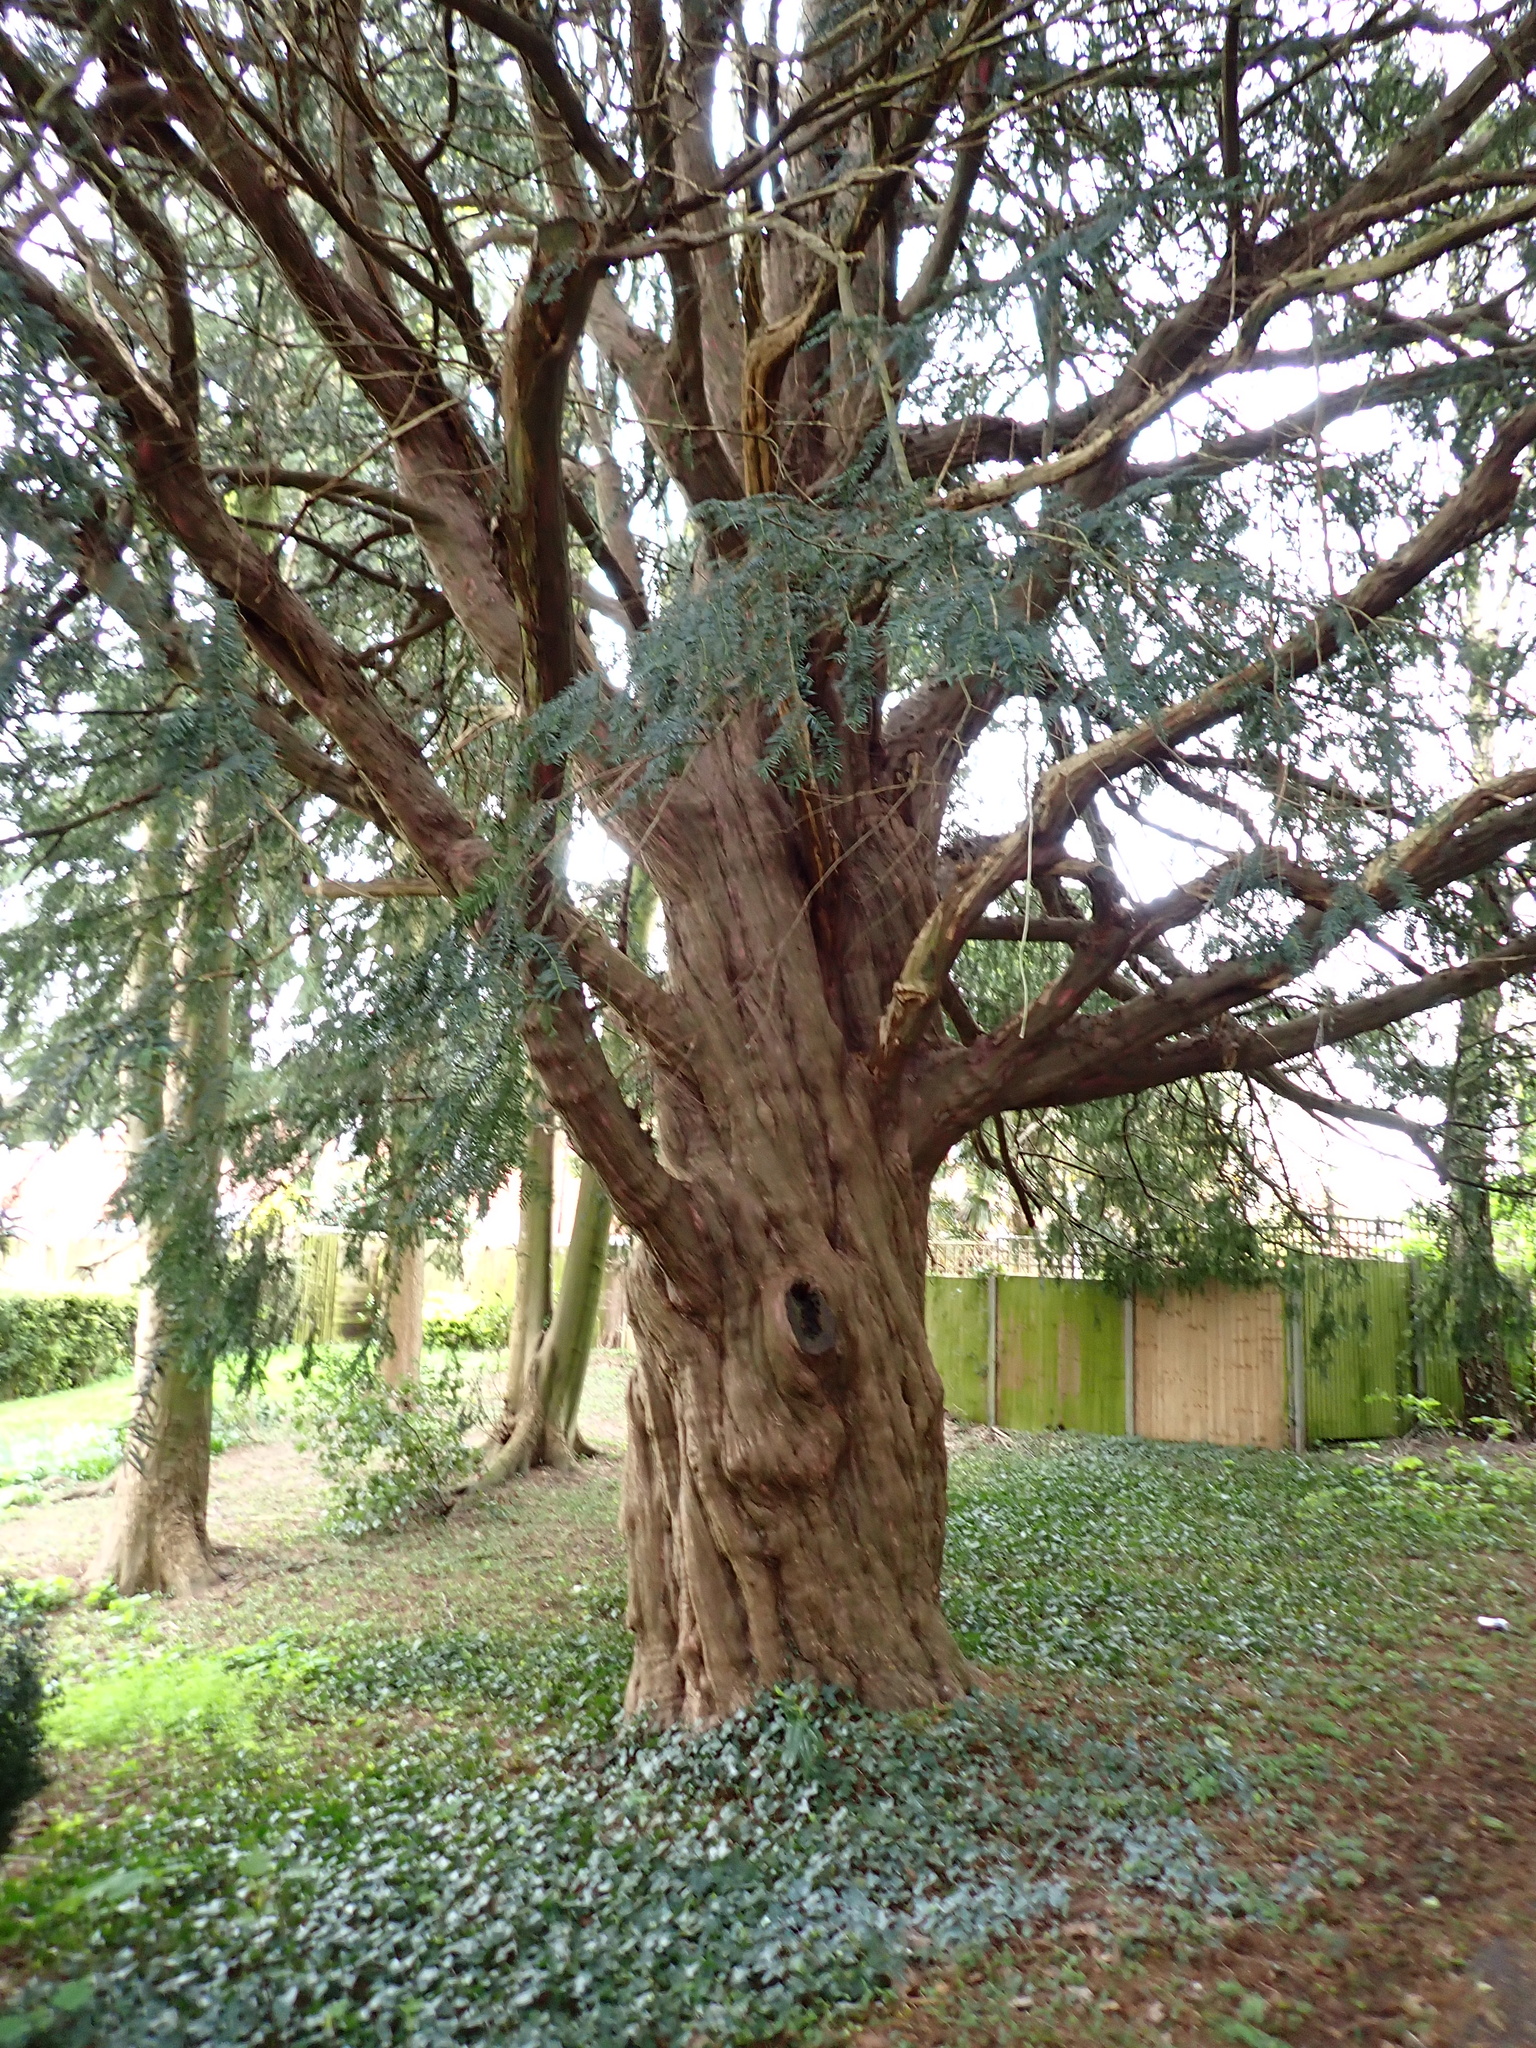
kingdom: Plantae
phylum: Tracheophyta
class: Pinopsida
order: Pinales
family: Taxaceae
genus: Taxus
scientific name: Taxus baccata
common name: Yew
